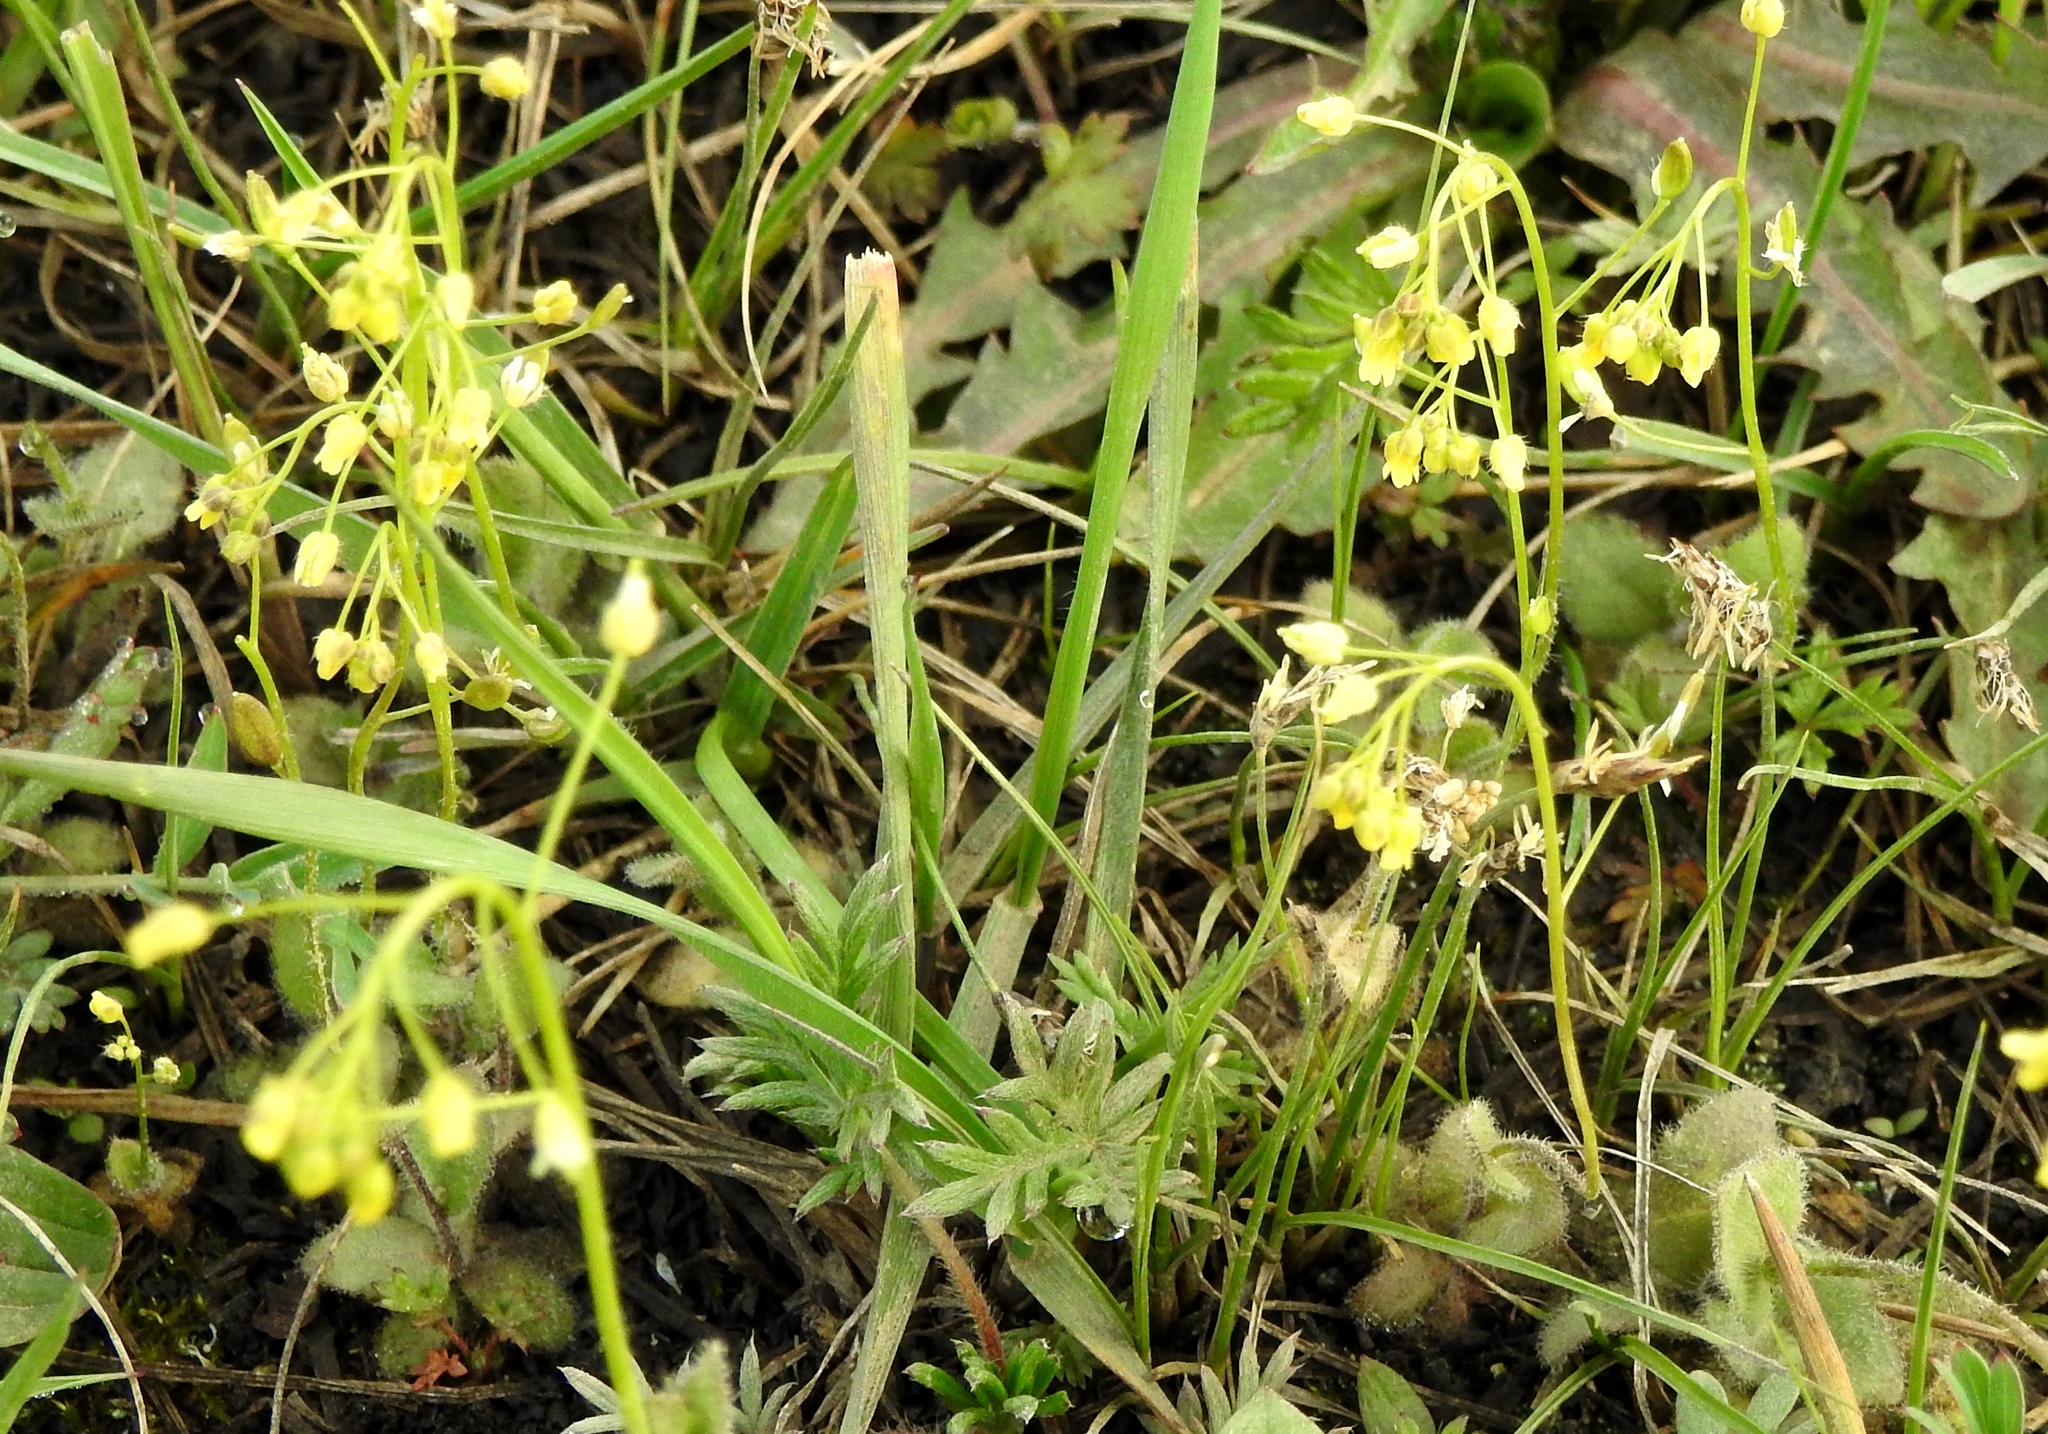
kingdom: Plantae
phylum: Tracheophyta
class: Magnoliopsida
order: Brassicales
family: Brassicaceae
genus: Draba
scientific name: Draba nemorosa
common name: Wood whitlow-grass
